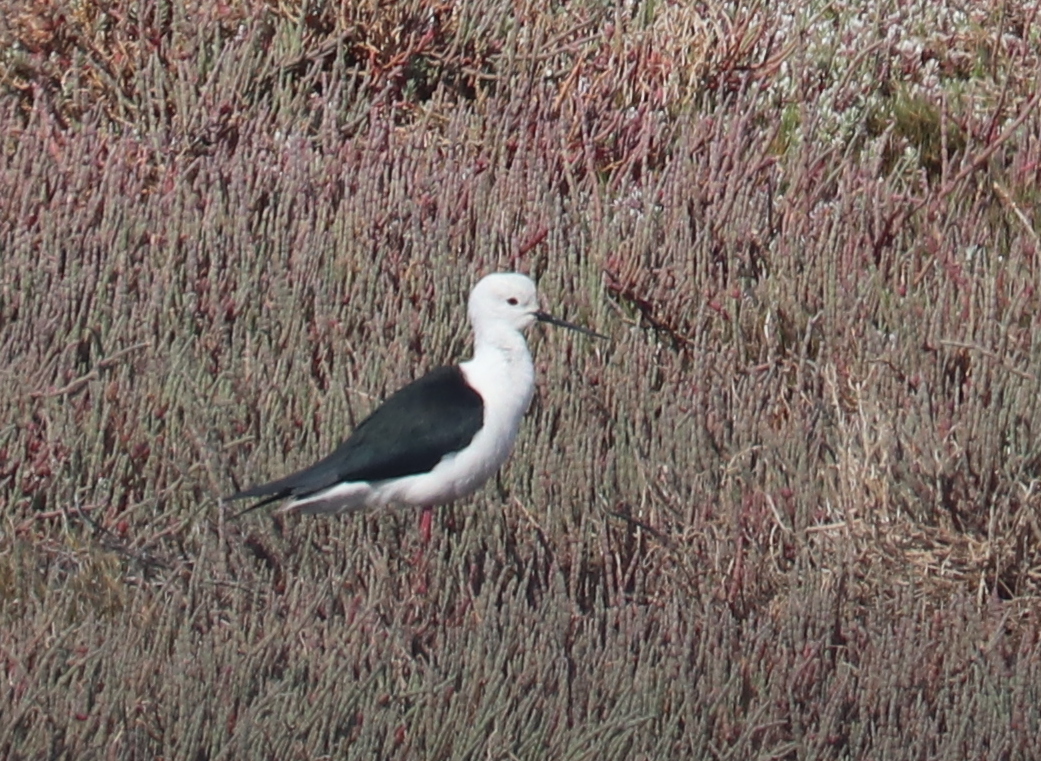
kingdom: Animalia
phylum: Chordata
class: Aves
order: Charadriiformes
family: Recurvirostridae
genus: Himantopus
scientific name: Himantopus himantopus
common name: Black-winged stilt
